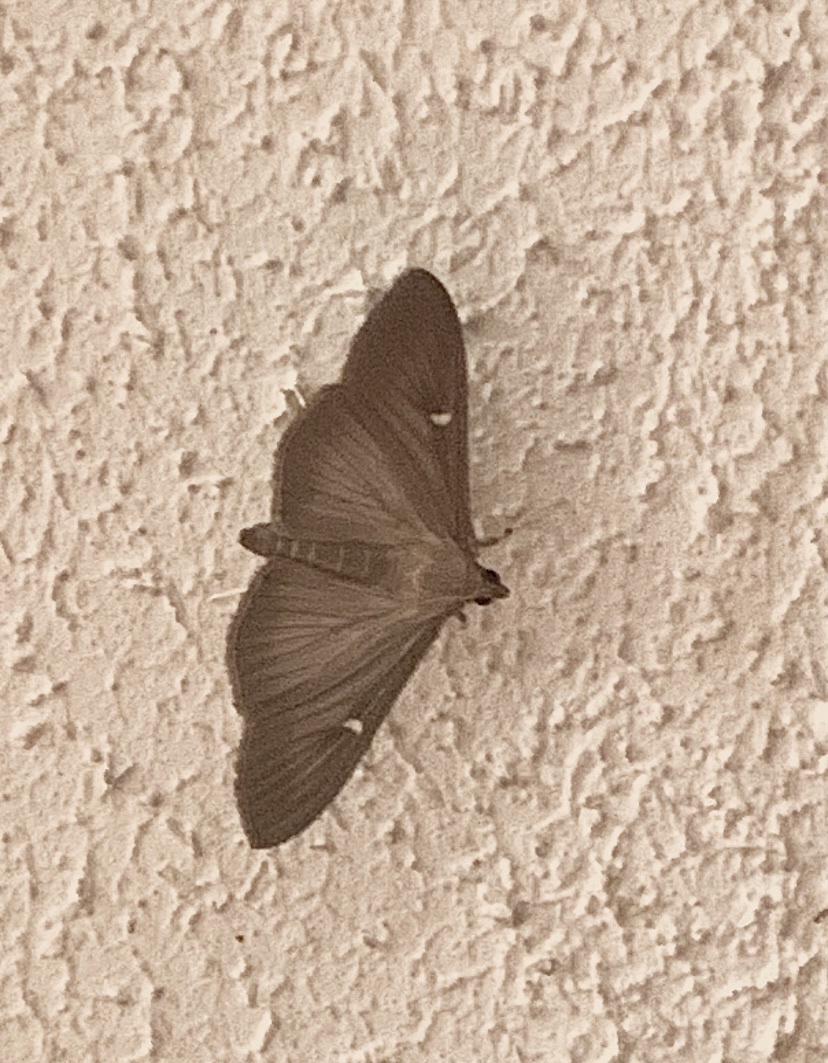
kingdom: Animalia
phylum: Arthropoda
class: Insecta
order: Lepidoptera
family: Crambidae
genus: Cydalima
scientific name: Cydalima perspectalis
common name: Box tree moth
